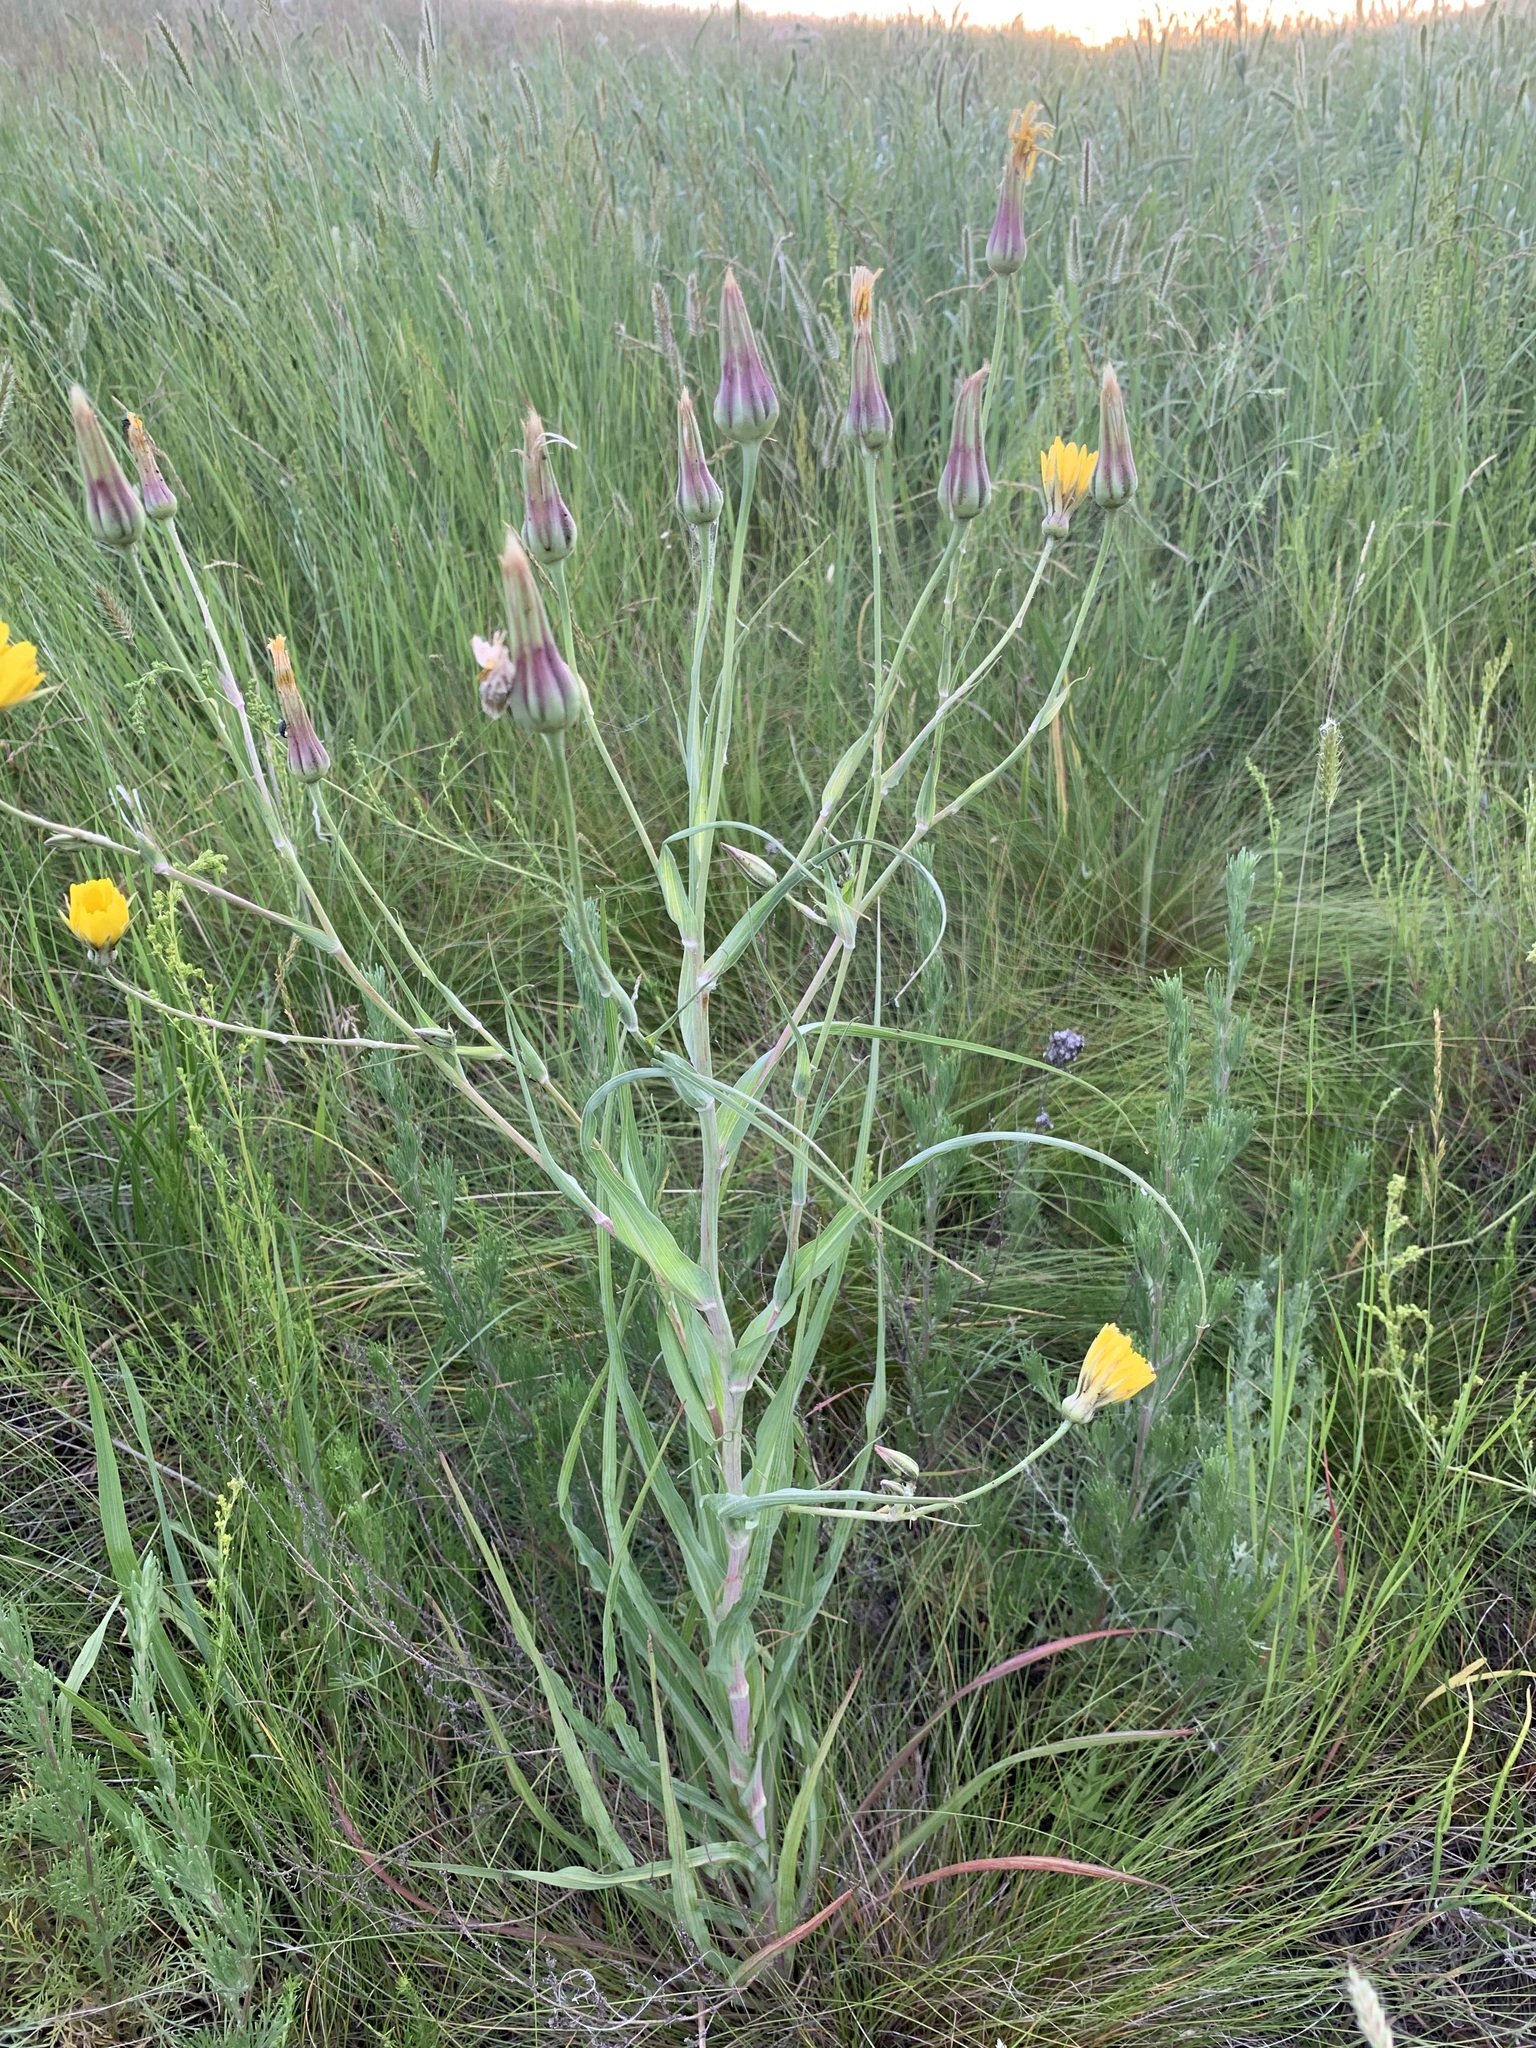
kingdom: Plantae
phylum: Tracheophyta
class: Magnoliopsida
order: Asterales
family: Asteraceae
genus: Tragopogon
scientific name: Tragopogon orientalis
